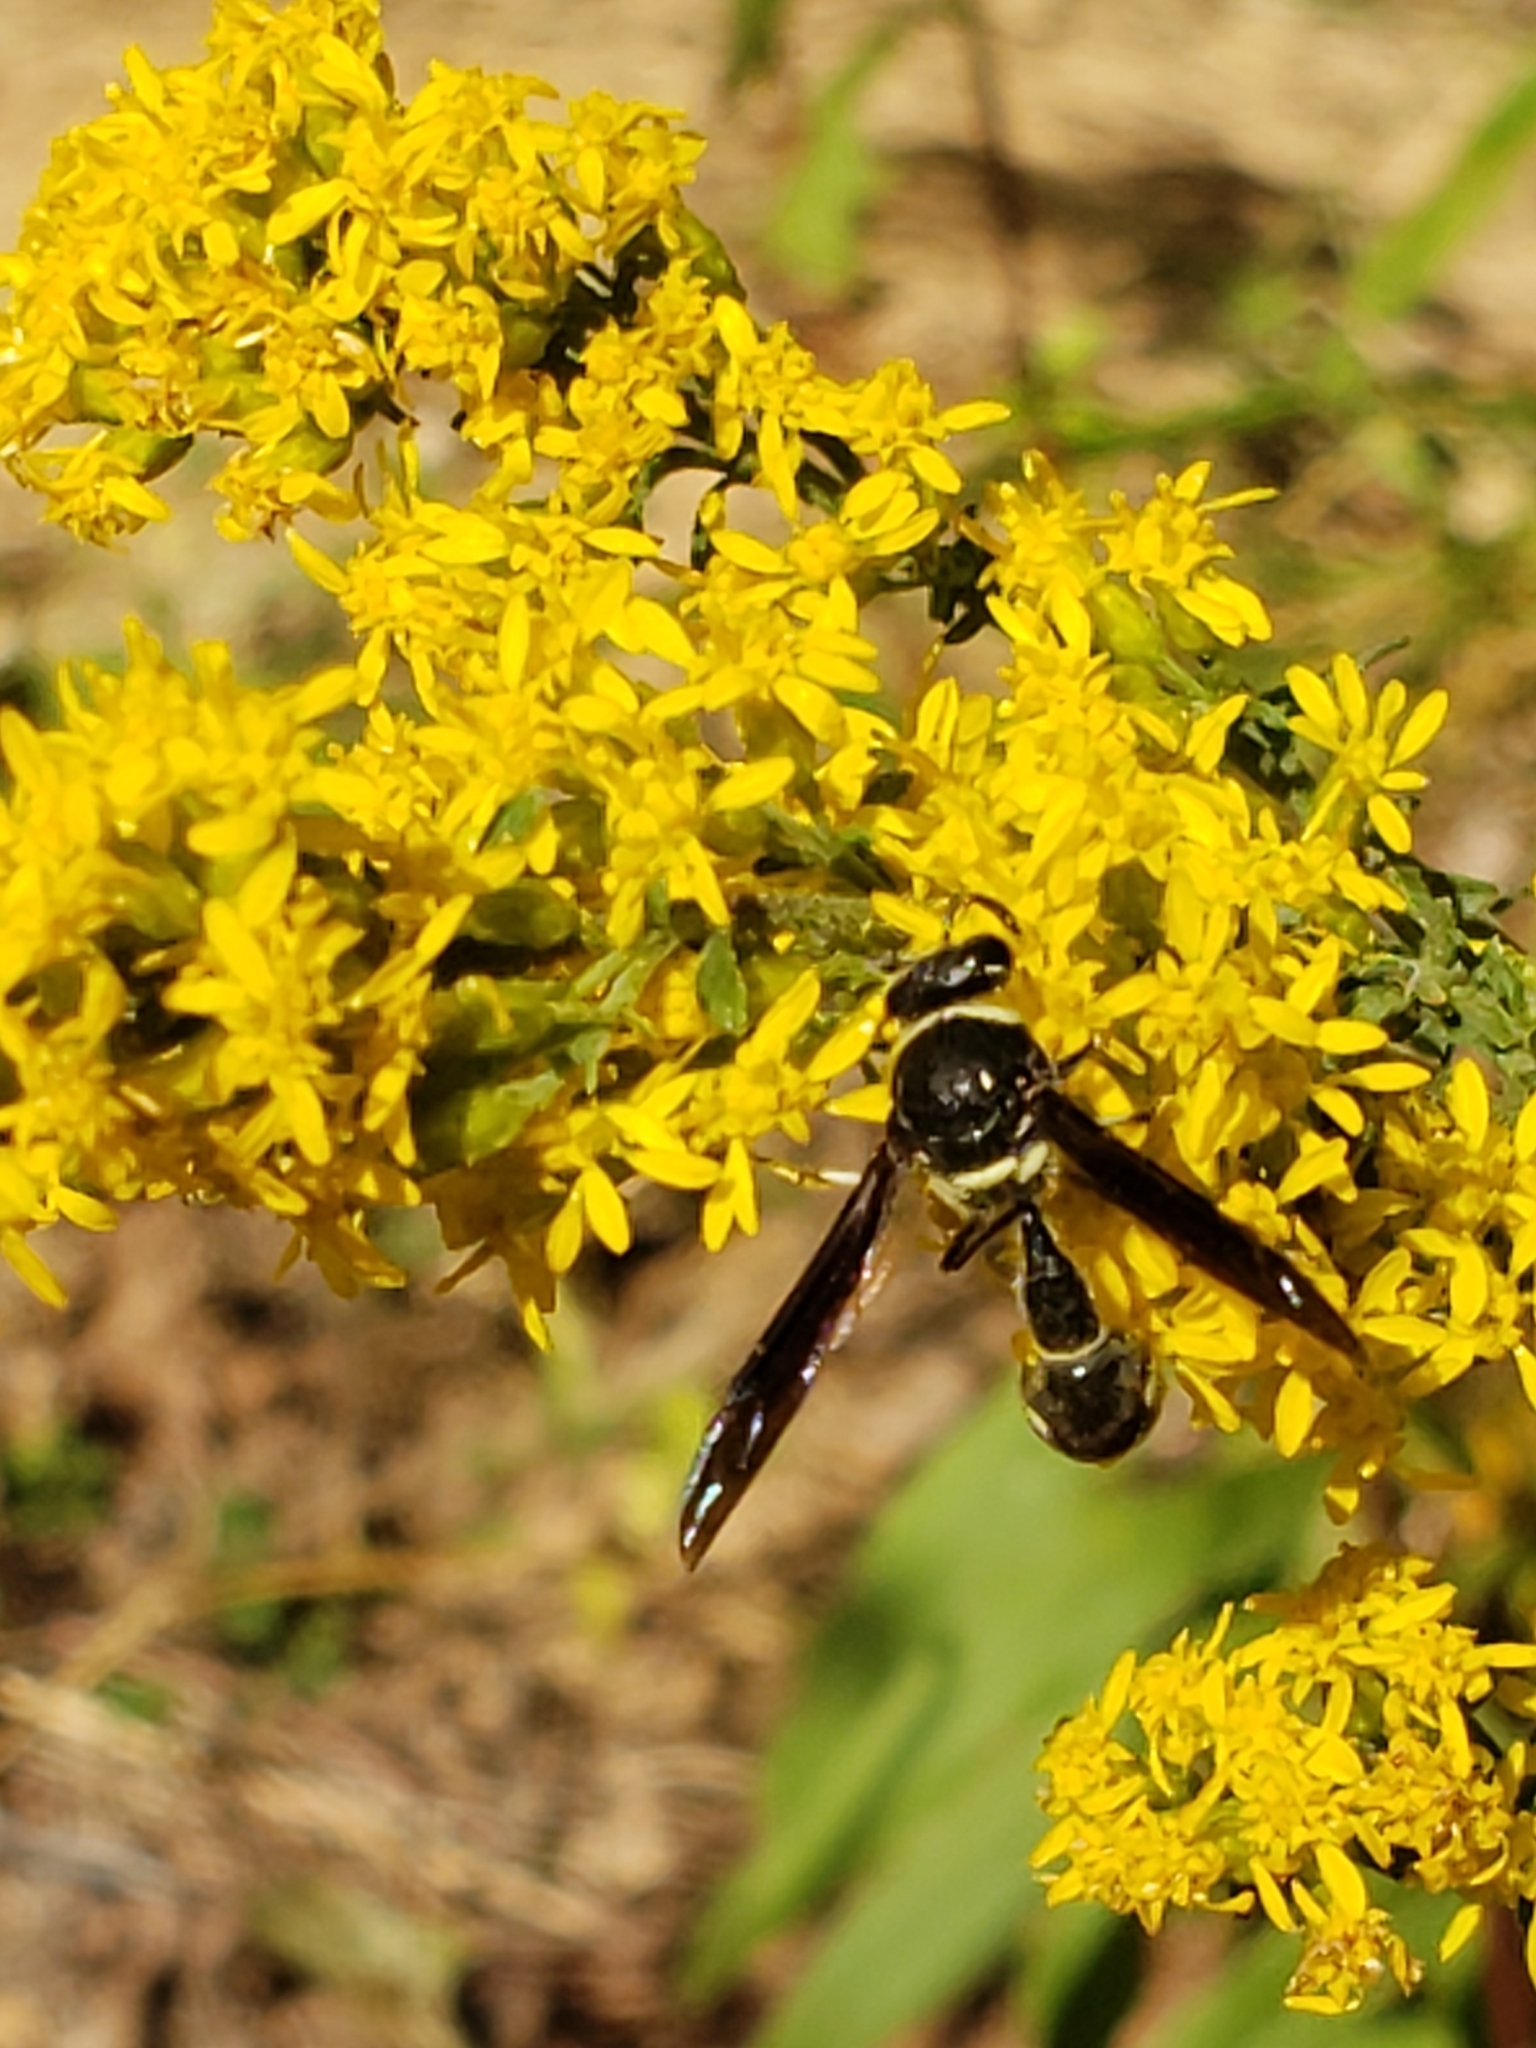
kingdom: Animalia
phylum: Arthropoda
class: Insecta
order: Hymenoptera
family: Vespidae
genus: Eumenes
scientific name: Eumenes fraternus
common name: Fraternal potter wasp
